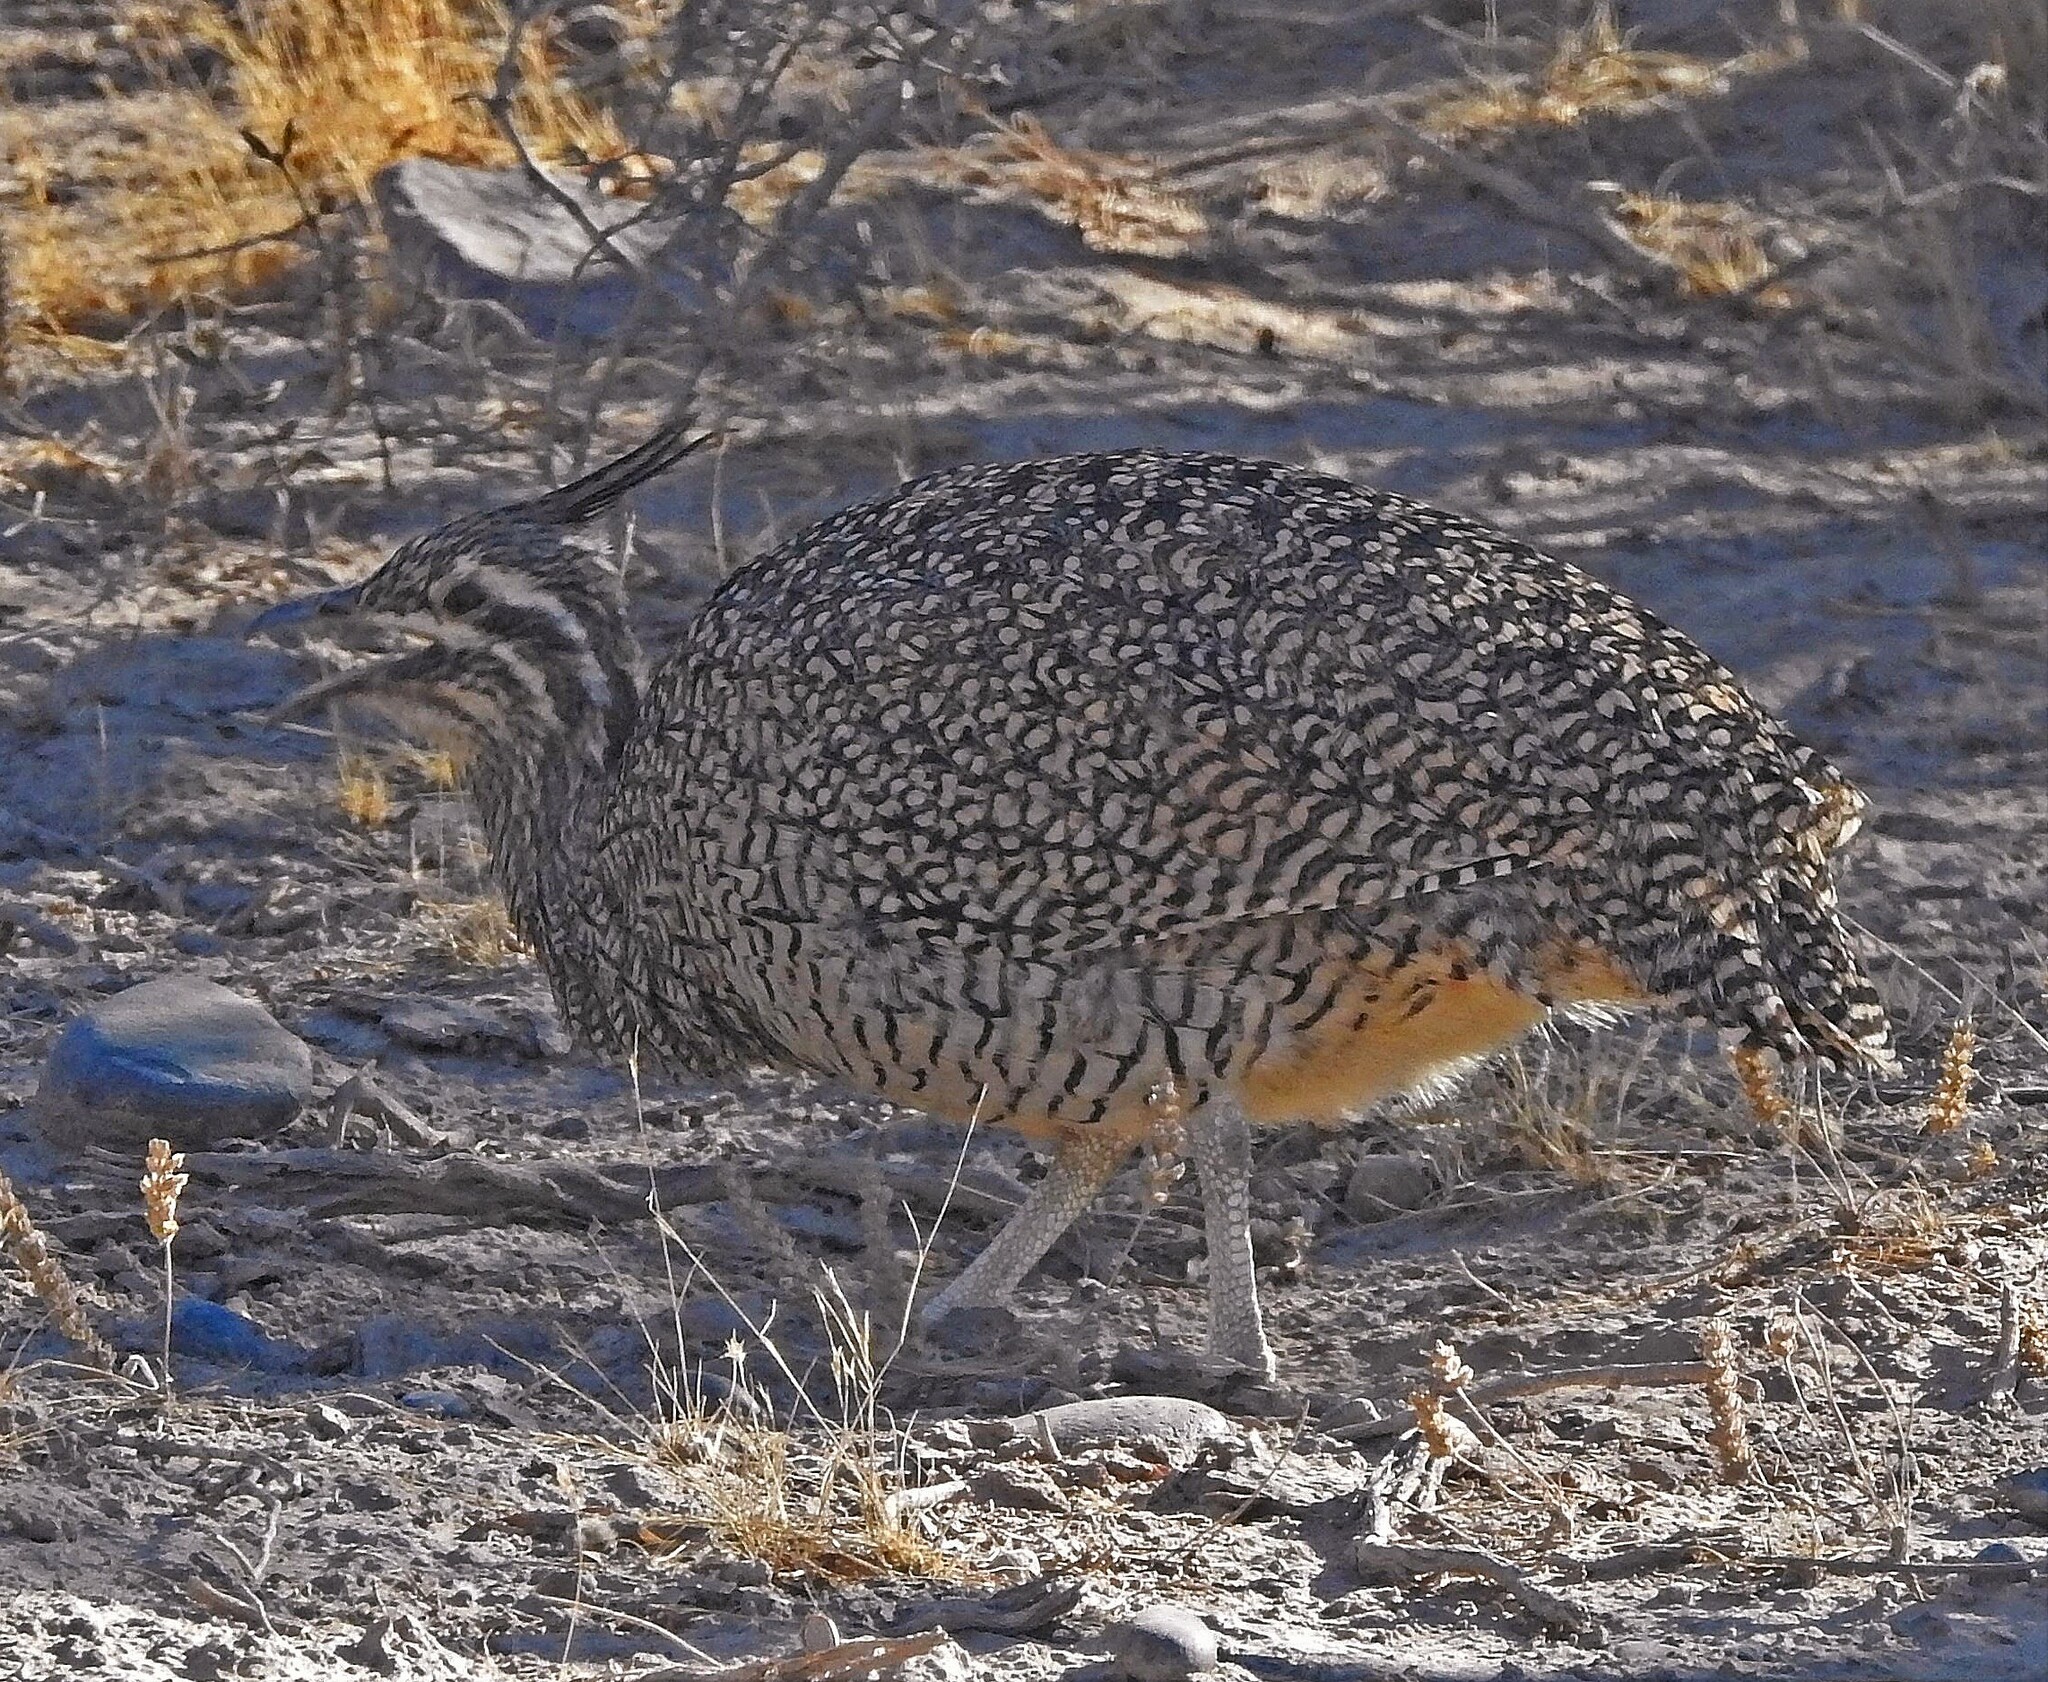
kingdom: Animalia
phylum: Chordata
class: Aves
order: Tinamiformes
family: Tinamidae
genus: Eudromia
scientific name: Eudromia elegans
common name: Elegant crested tinamou
